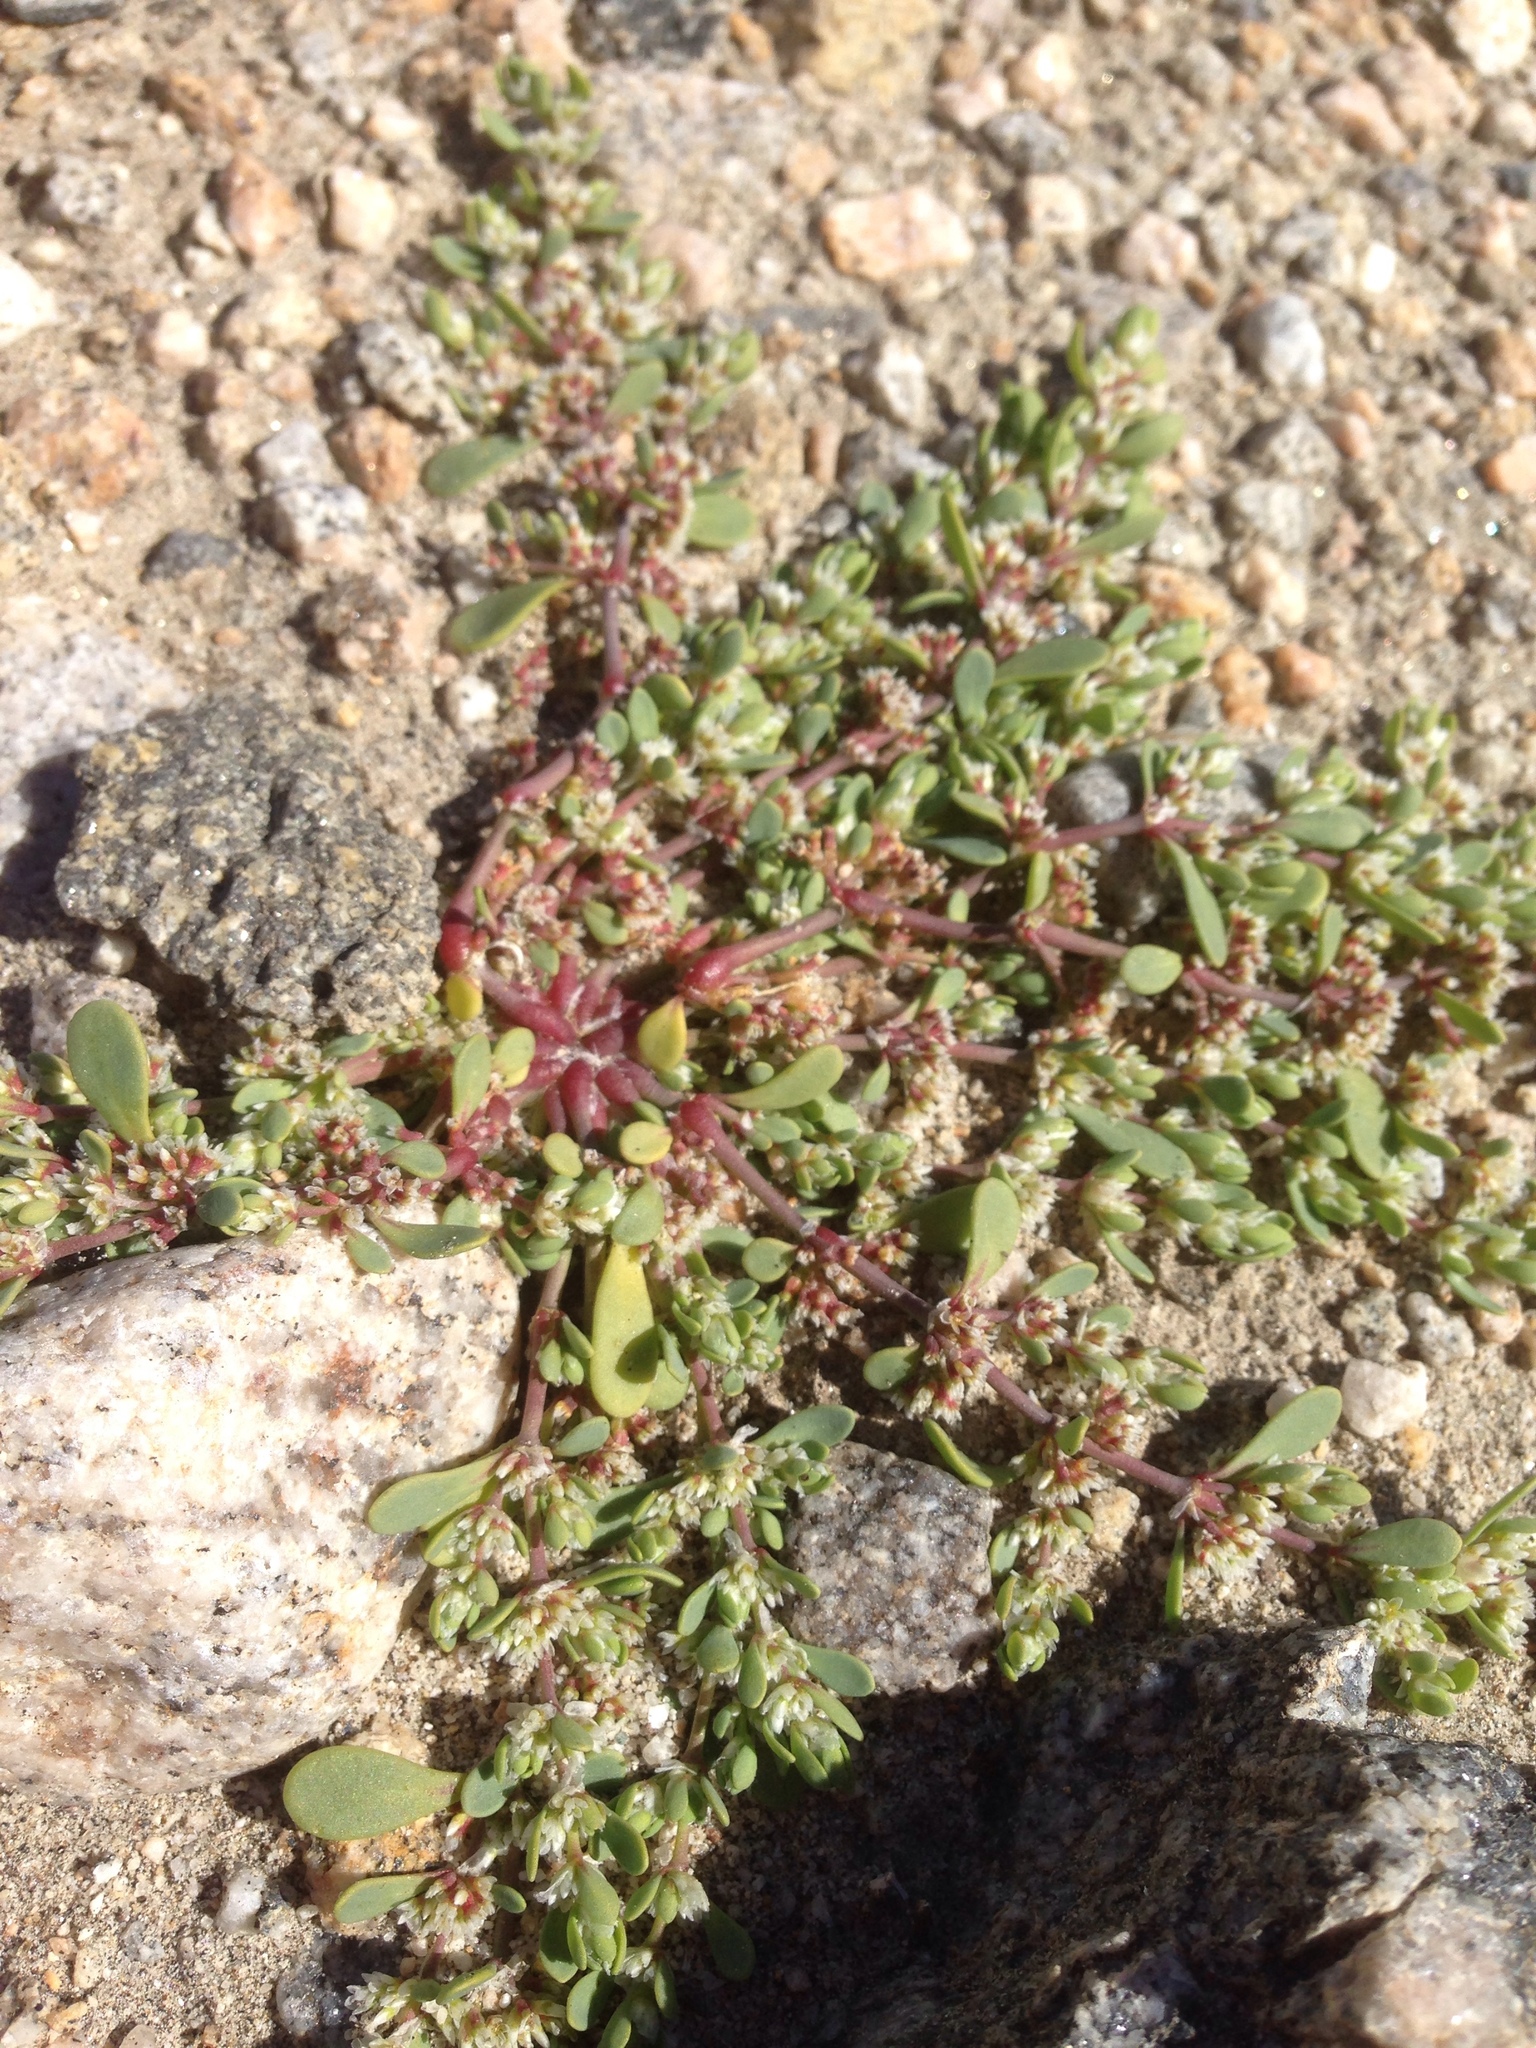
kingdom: Plantae
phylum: Tracheophyta
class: Magnoliopsida
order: Caryophyllales
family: Caryophyllaceae
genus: Achyronychia
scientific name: Achyronychia cooperi
